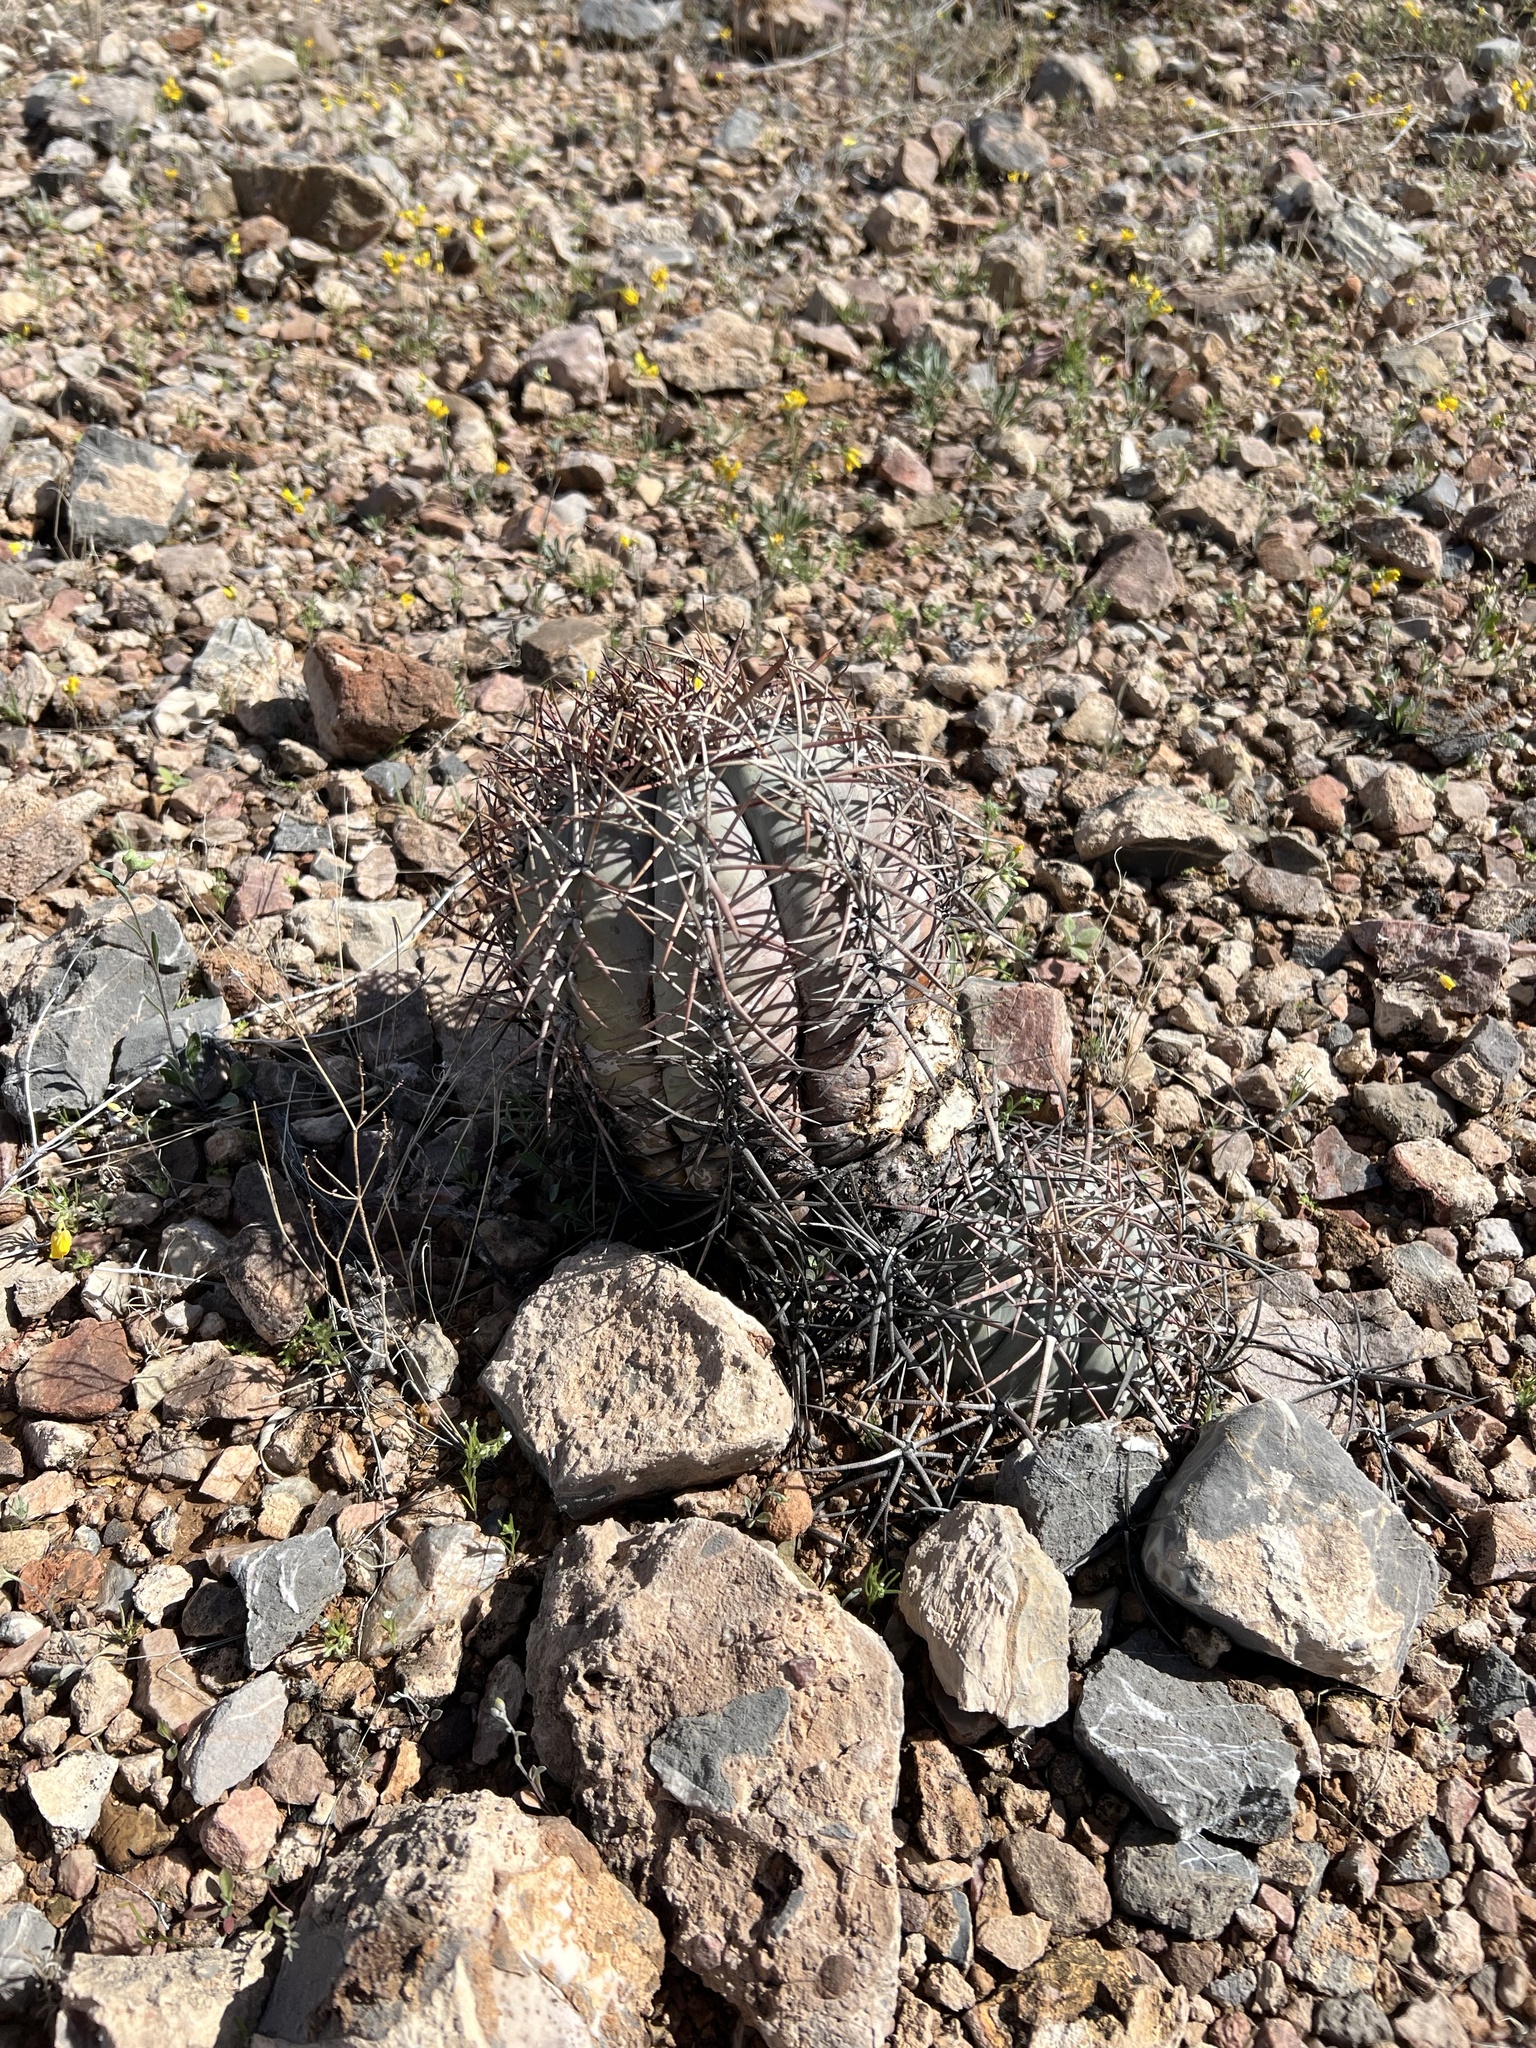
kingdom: Plantae
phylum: Tracheophyta
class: Magnoliopsida
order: Caryophyllales
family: Cactaceae
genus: Echinocactus
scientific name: Echinocactus horizonthalonius
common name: Devilshead
